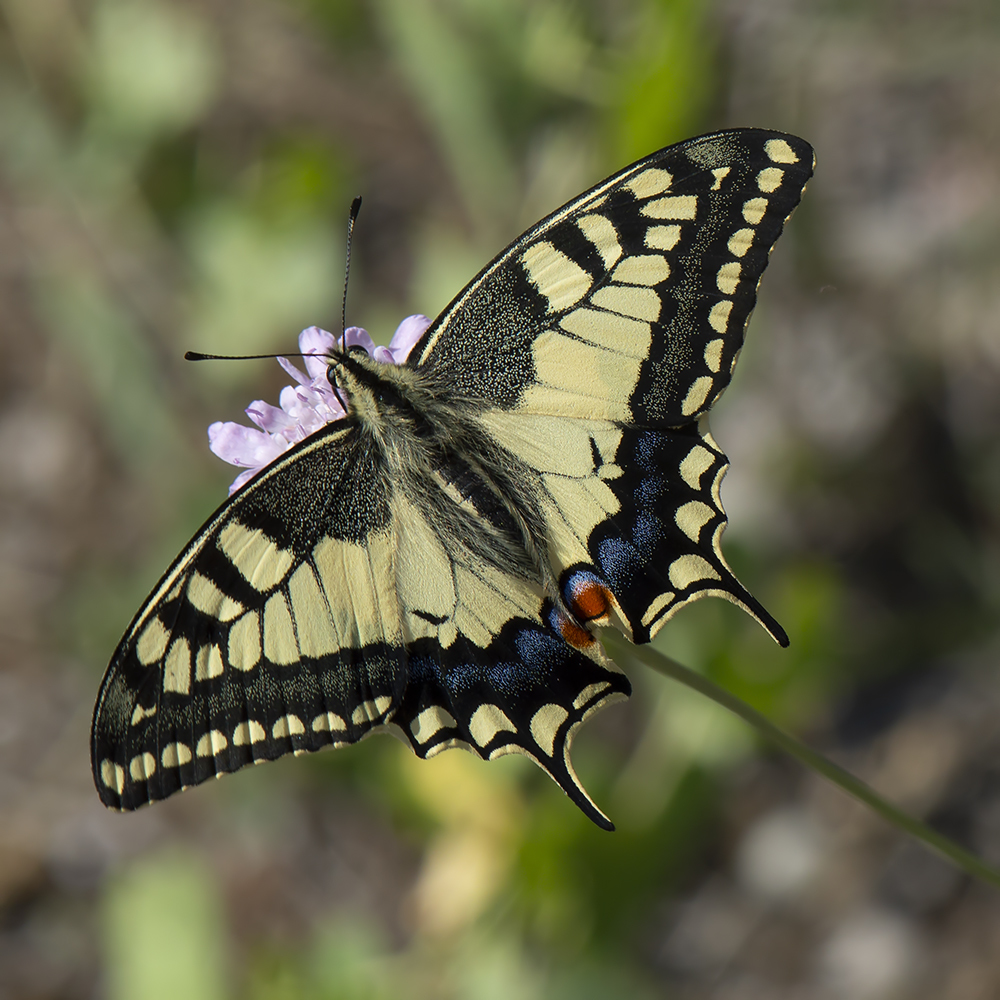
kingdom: Animalia
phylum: Arthropoda
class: Insecta
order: Lepidoptera
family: Papilionidae
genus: Papilio
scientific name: Papilio machaon
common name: Swallowtail
